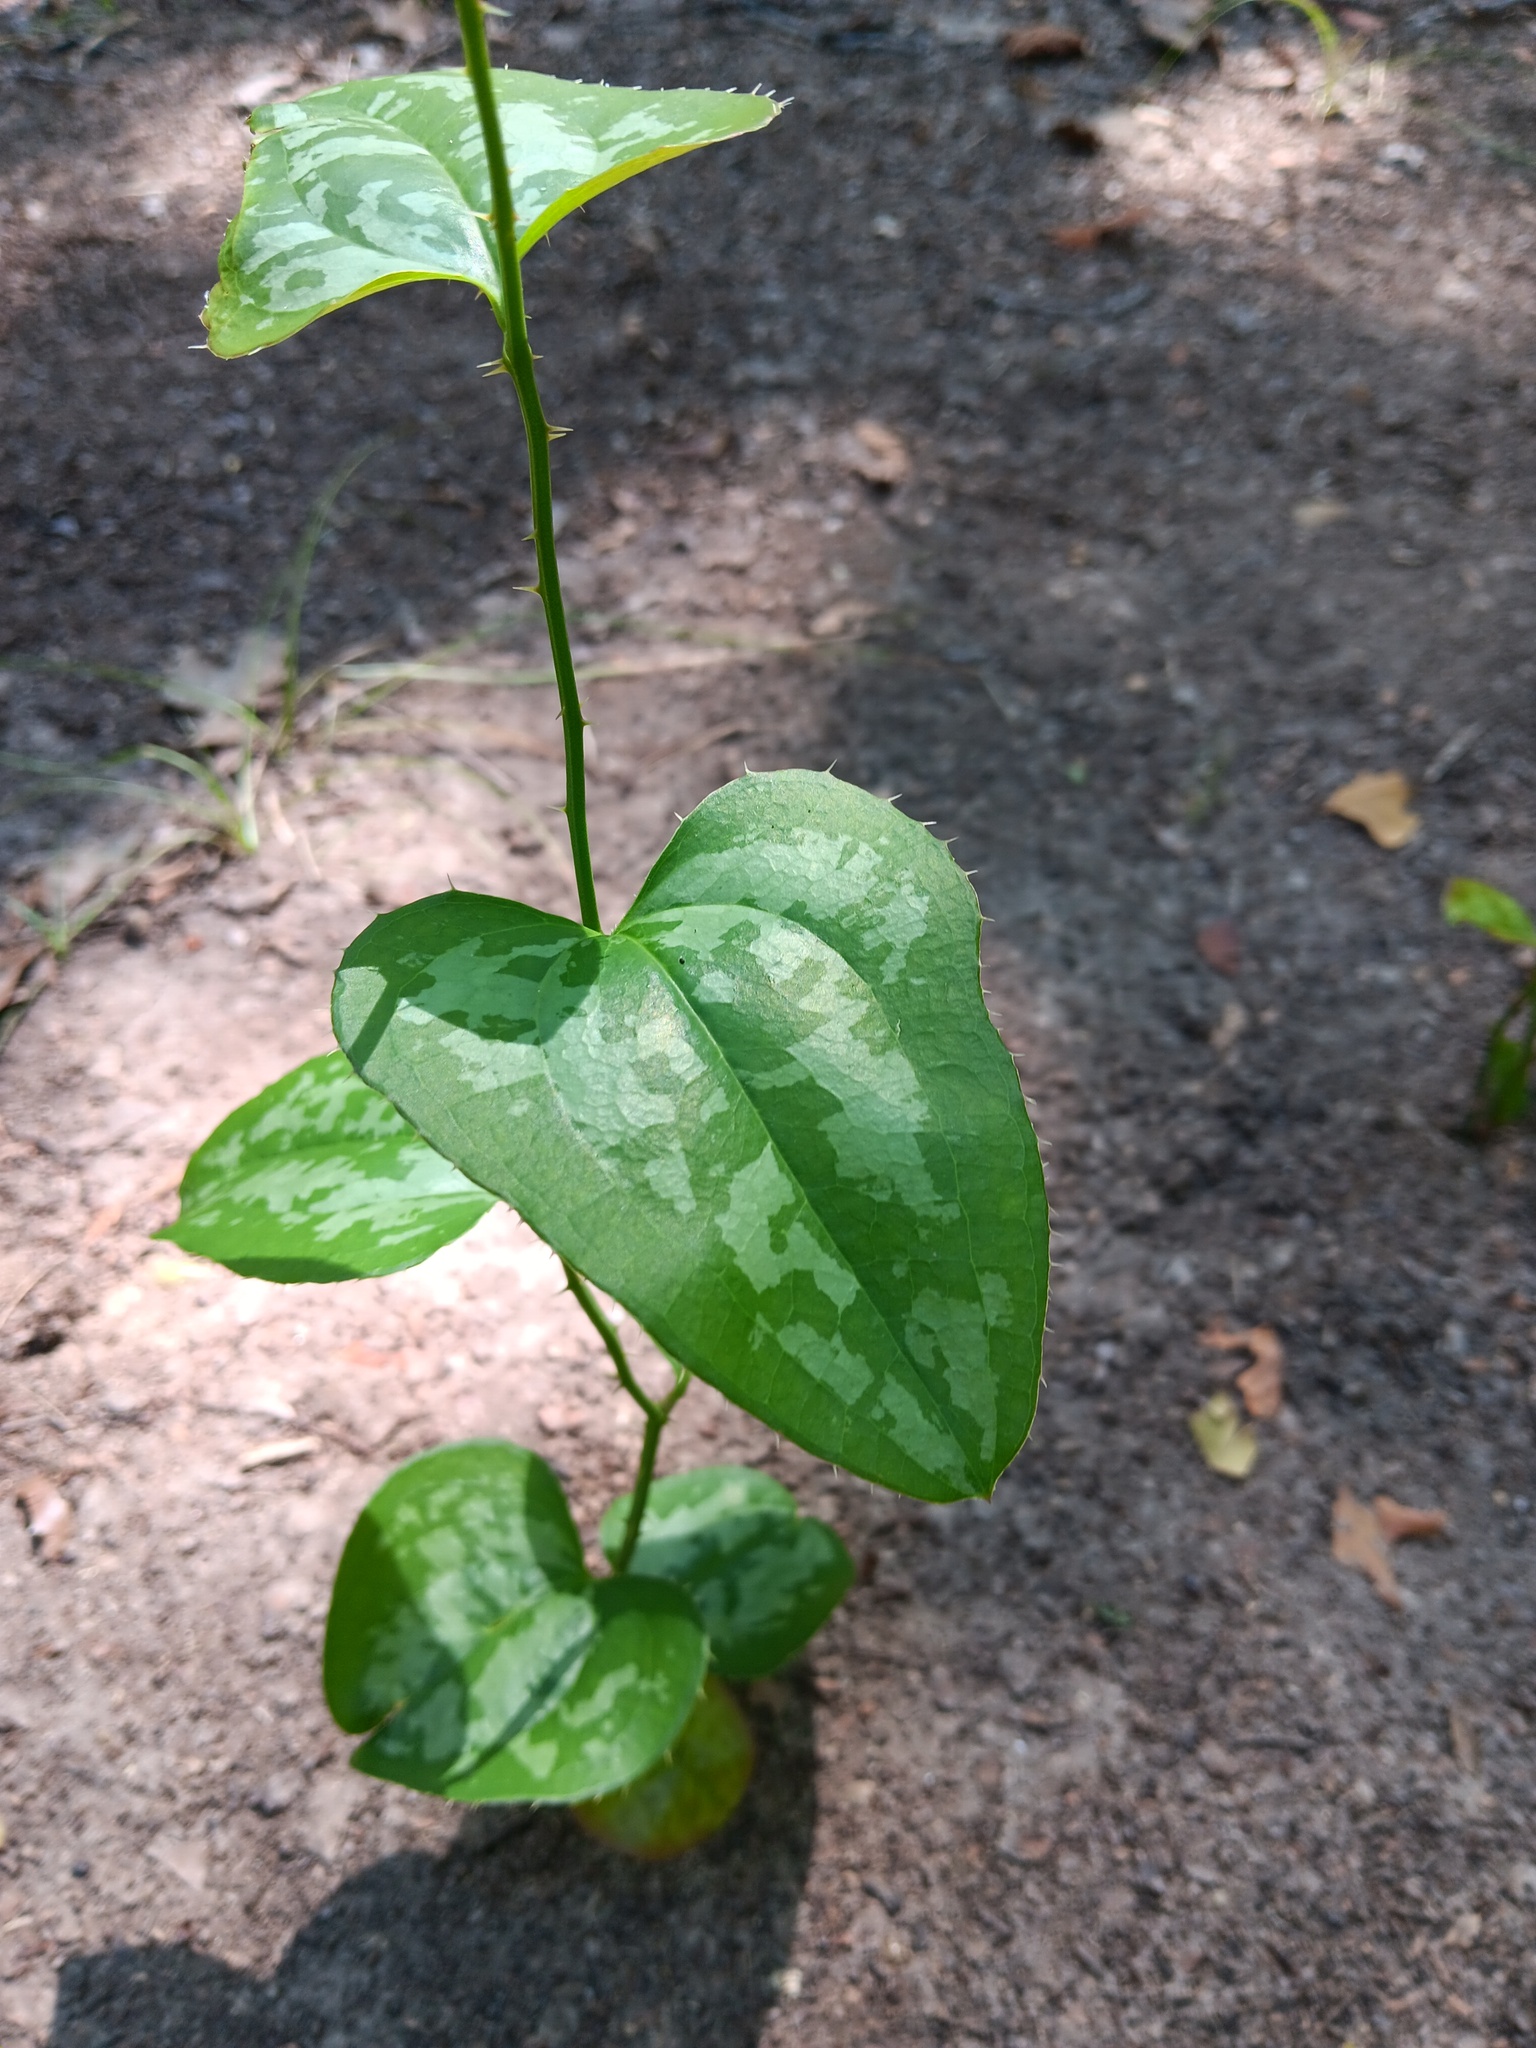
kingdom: Plantae
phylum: Tracheophyta
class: Liliopsida
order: Liliales
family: Smilacaceae
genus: Smilax
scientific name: Smilax bona-nox
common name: Catbrier
